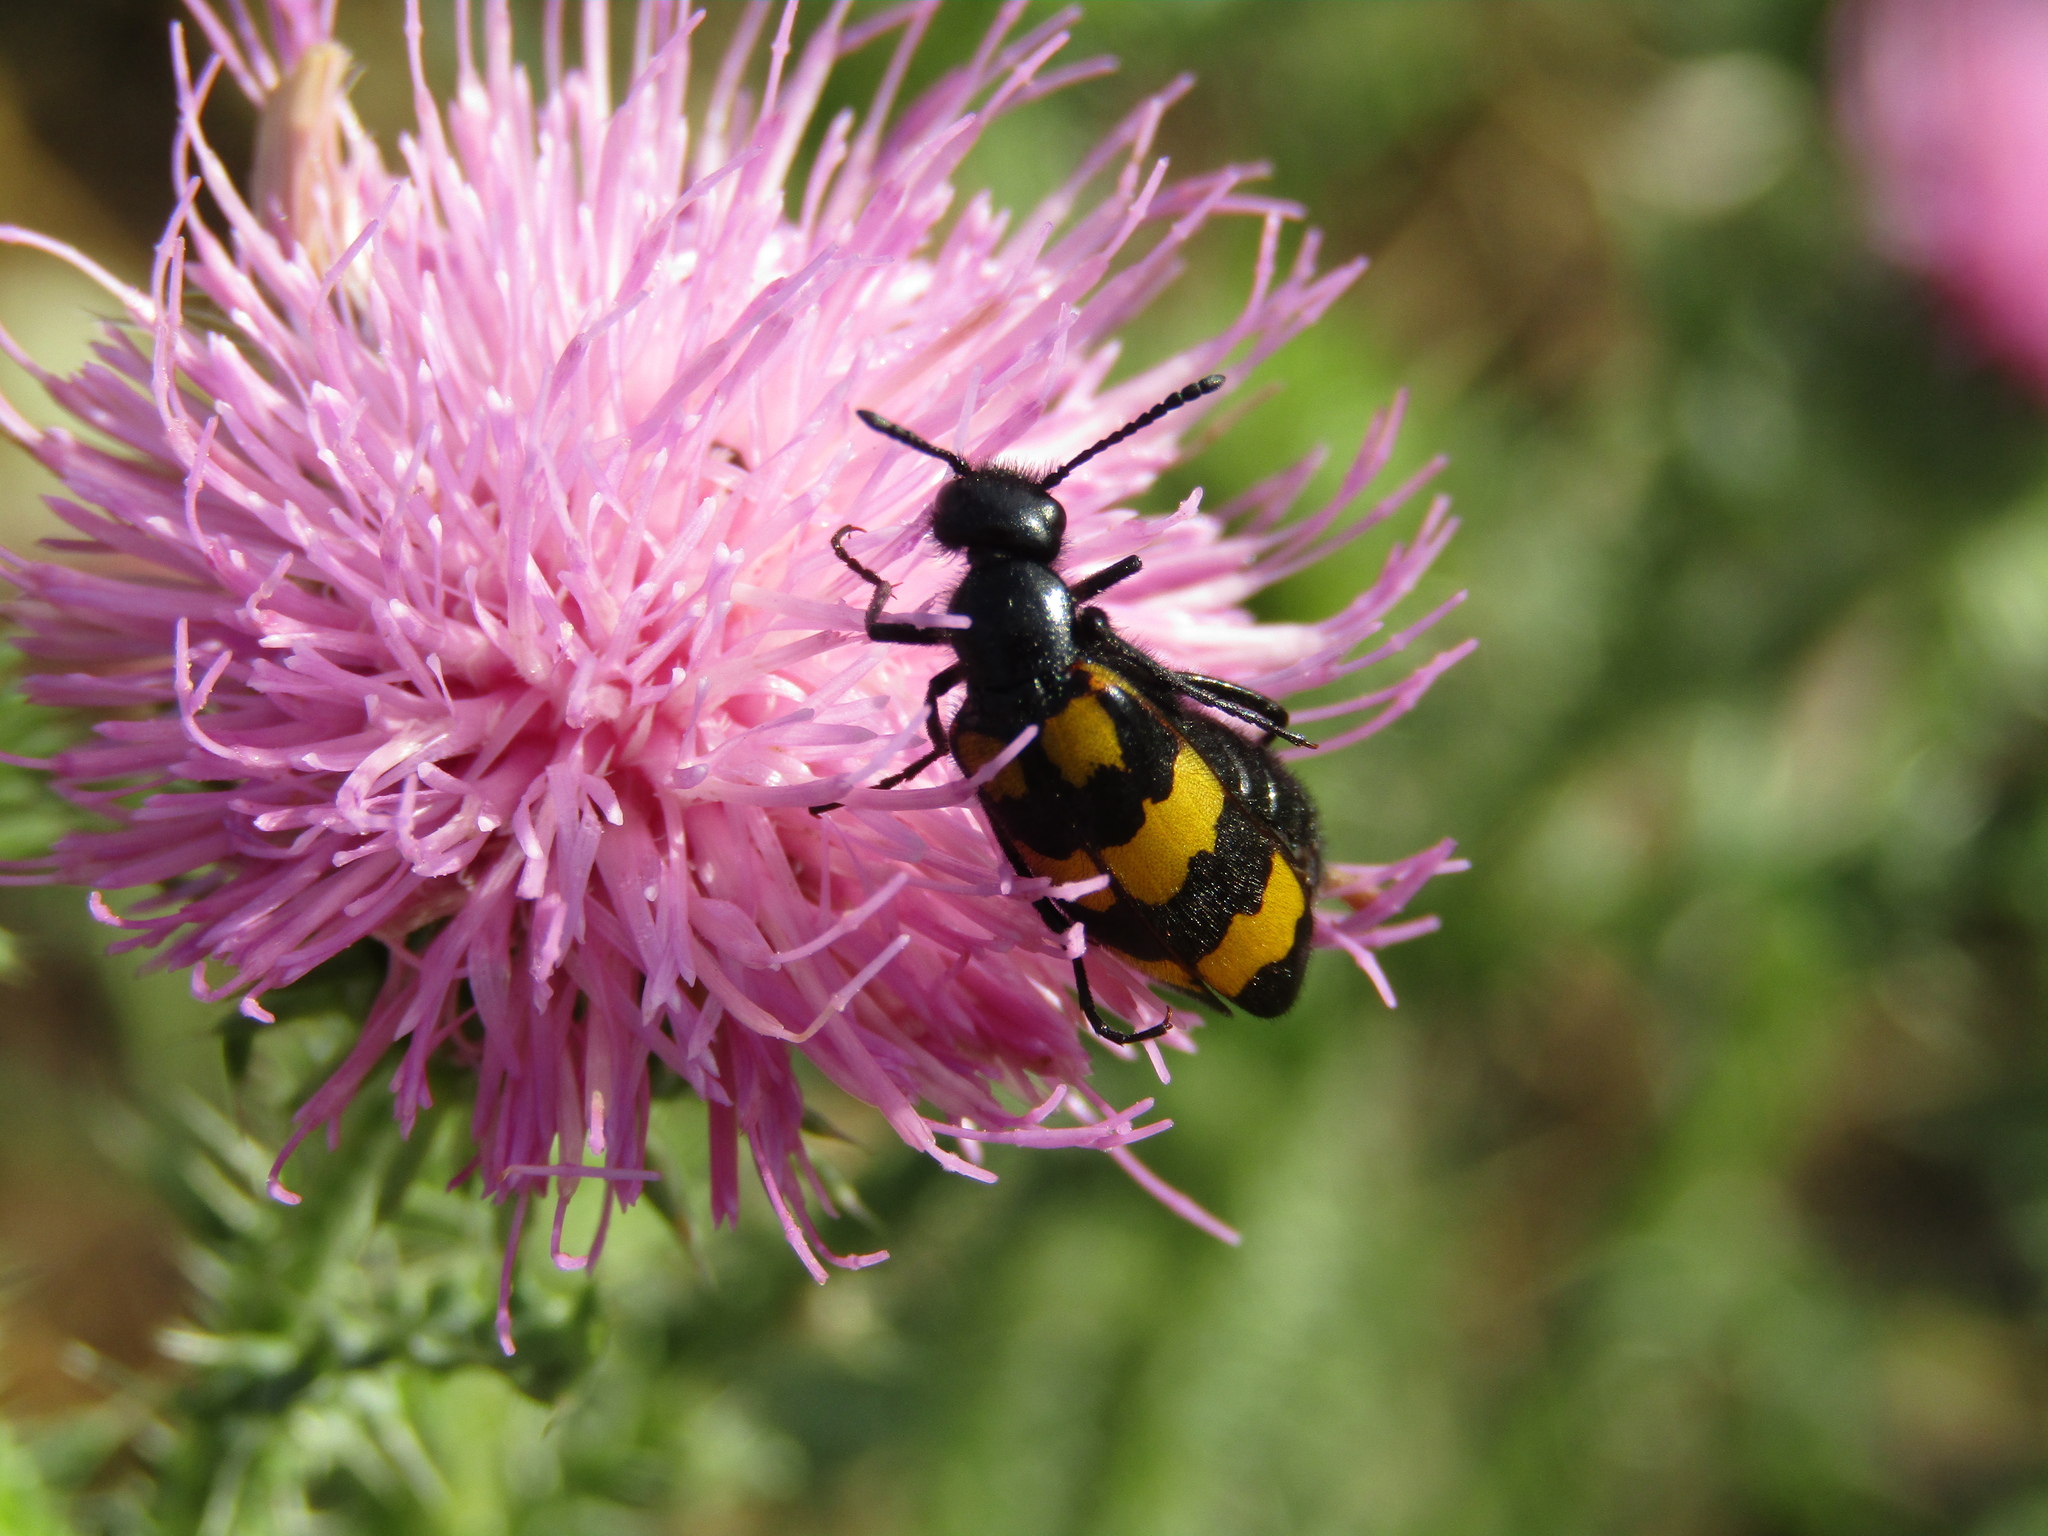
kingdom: Animalia
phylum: Arthropoda
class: Insecta
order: Coleoptera
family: Meloidae
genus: Mylabris
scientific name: Mylabris variabilis
